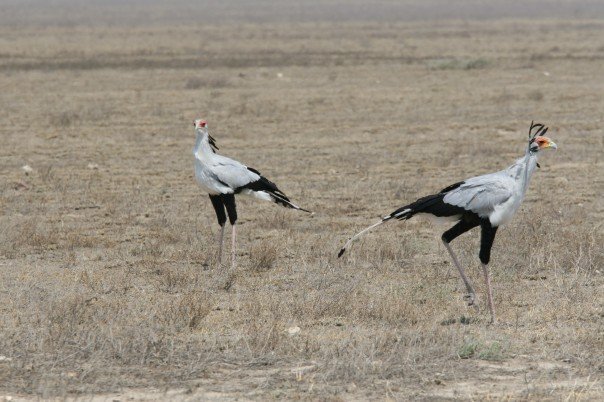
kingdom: Animalia
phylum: Chordata
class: Aves
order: Accipitriformes
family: Sagittariidae
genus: Sagittarius
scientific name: Sagittarius serpentarius
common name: Secretarybird
